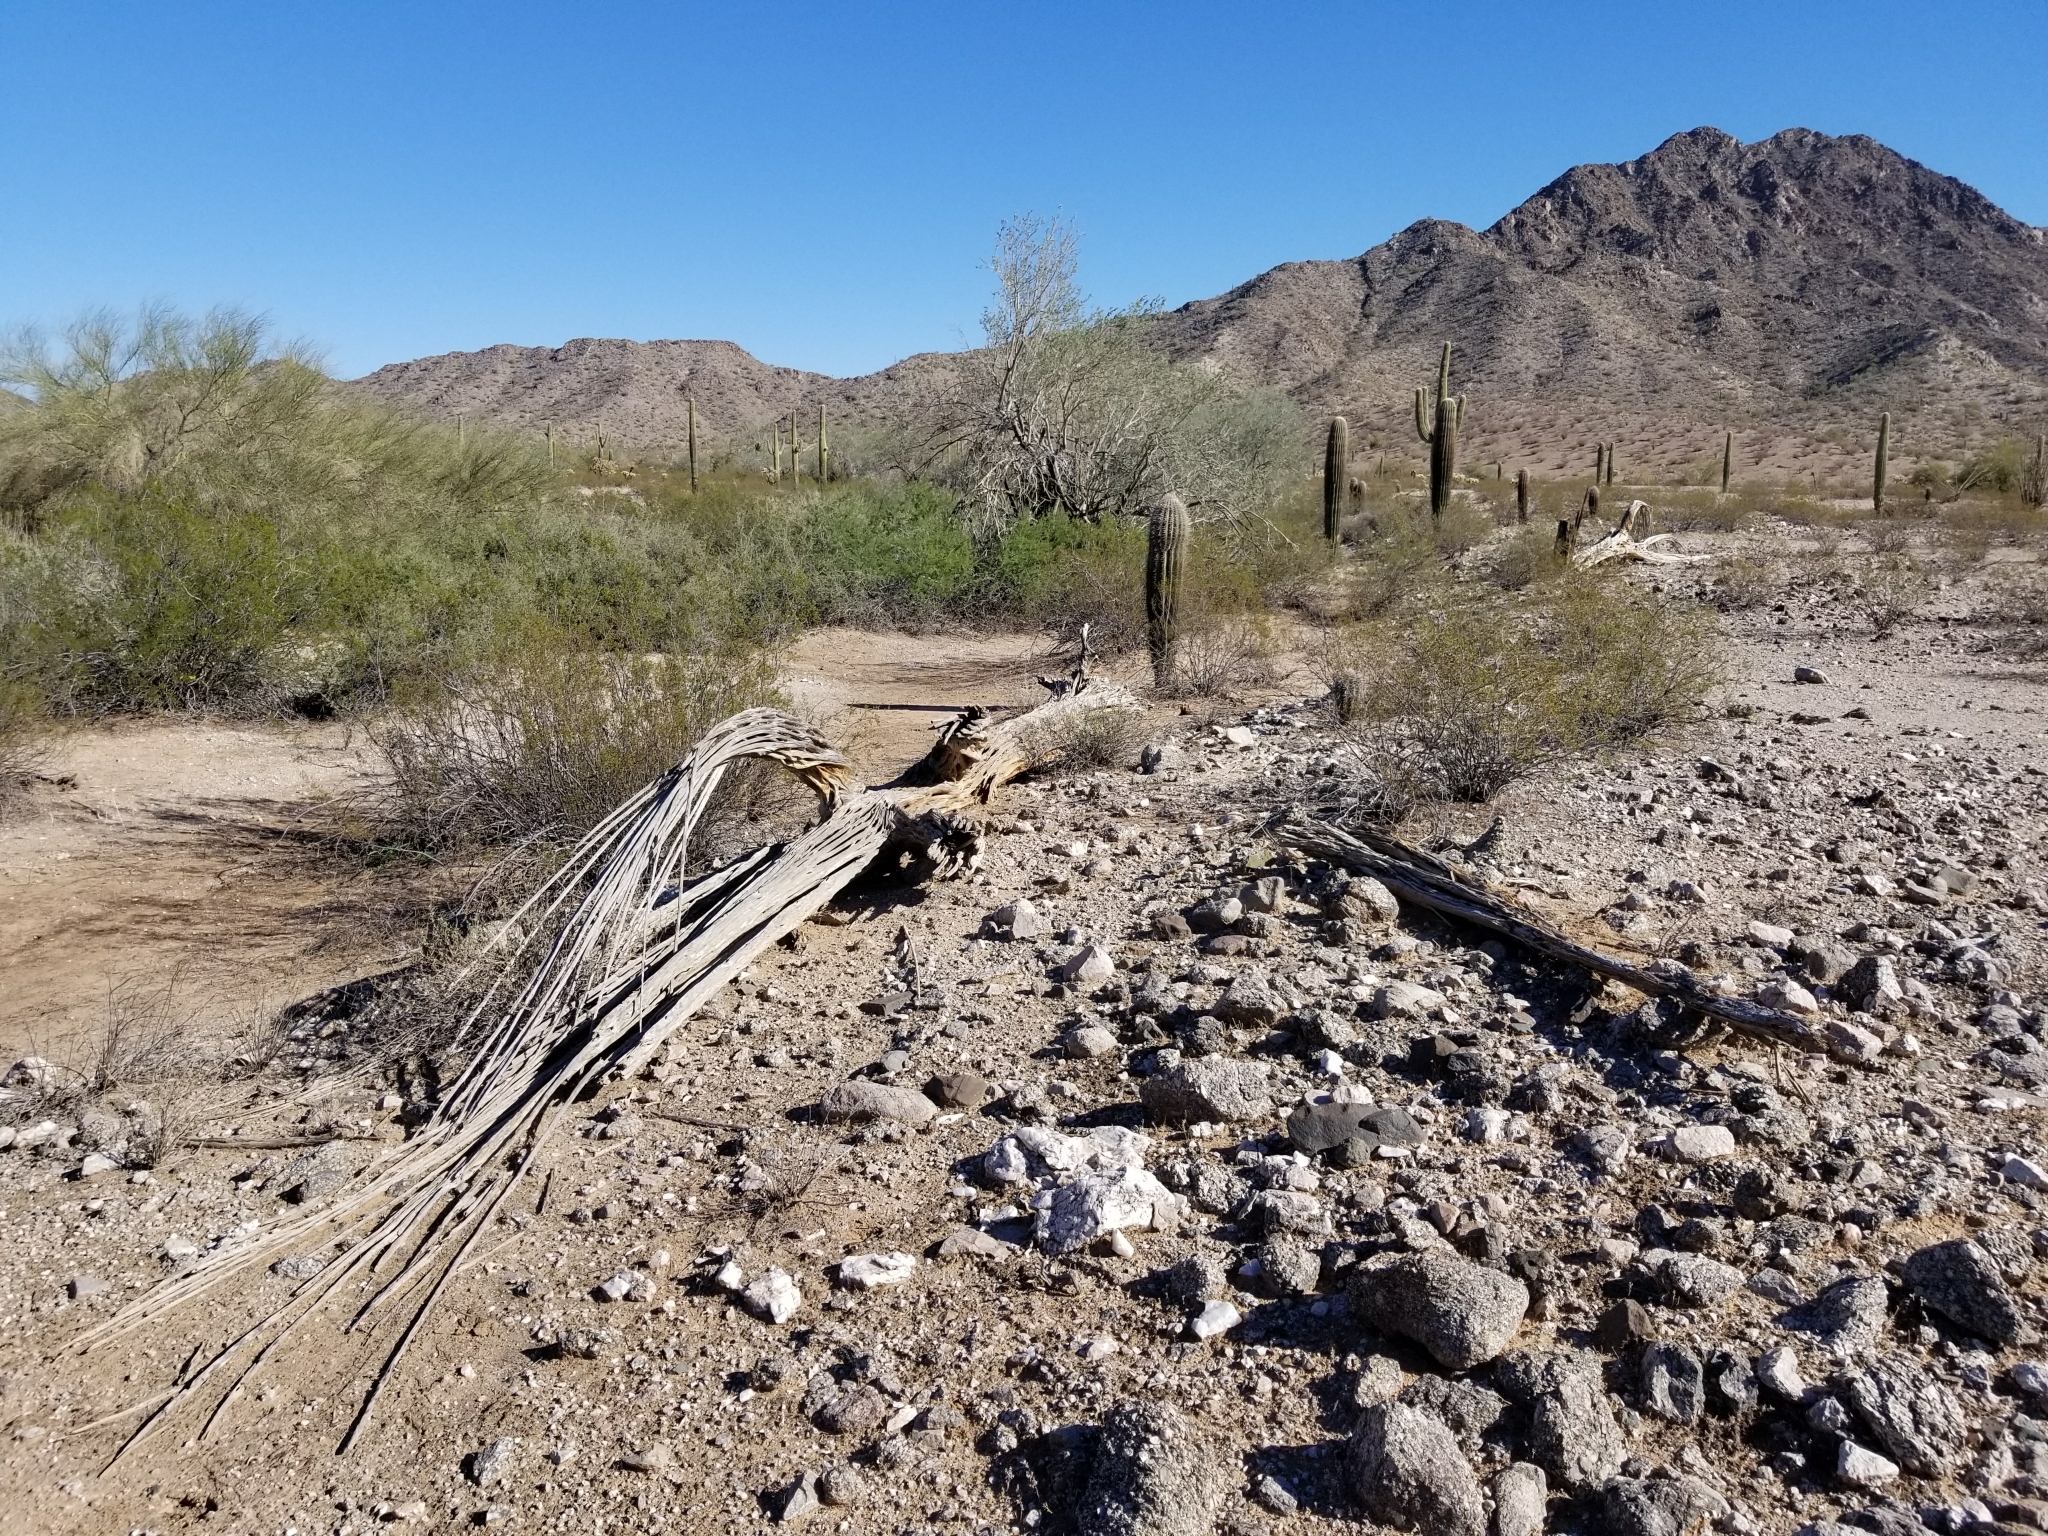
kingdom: Plantae
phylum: Tracheophyta
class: Magnoliopsida
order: Caryophyllales
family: Cactaceae
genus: Carnegiea
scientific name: Carnegiea gigantea
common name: Saguaro
